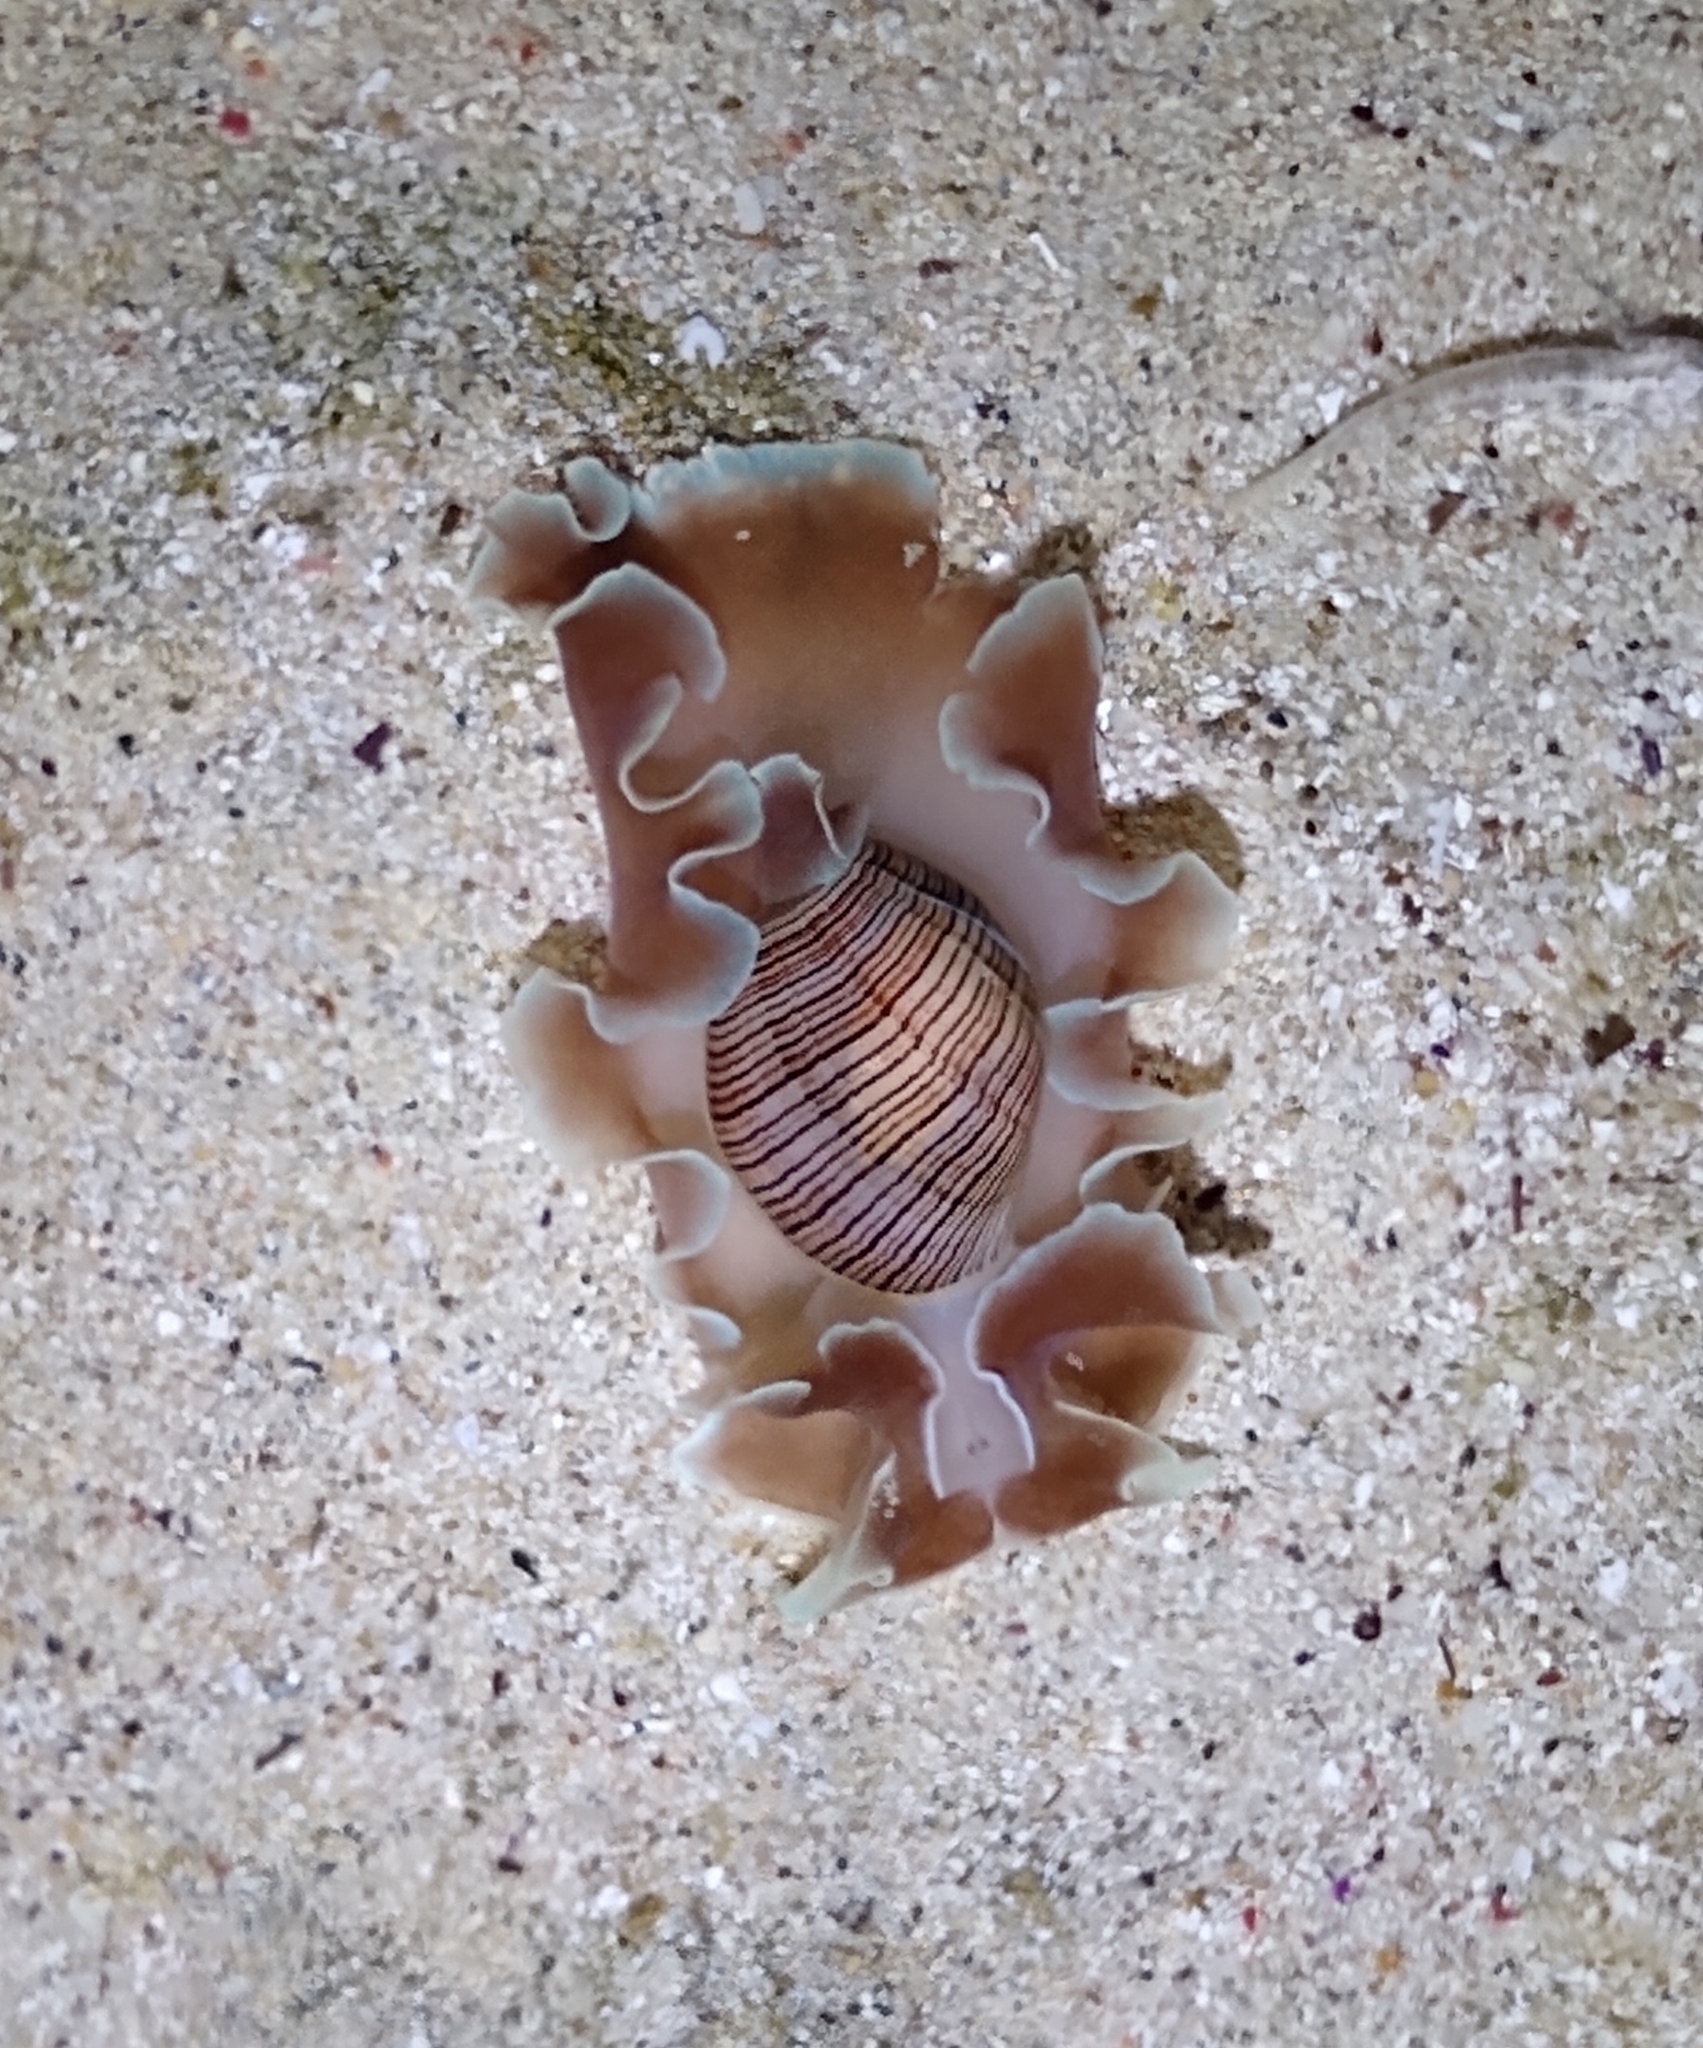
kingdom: Animalia
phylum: Mollusca
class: Gastropoda
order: Cephalaspidea
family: Aplustridae
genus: Hydatina
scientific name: Hydatina physis
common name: Brown-line paperbubble
